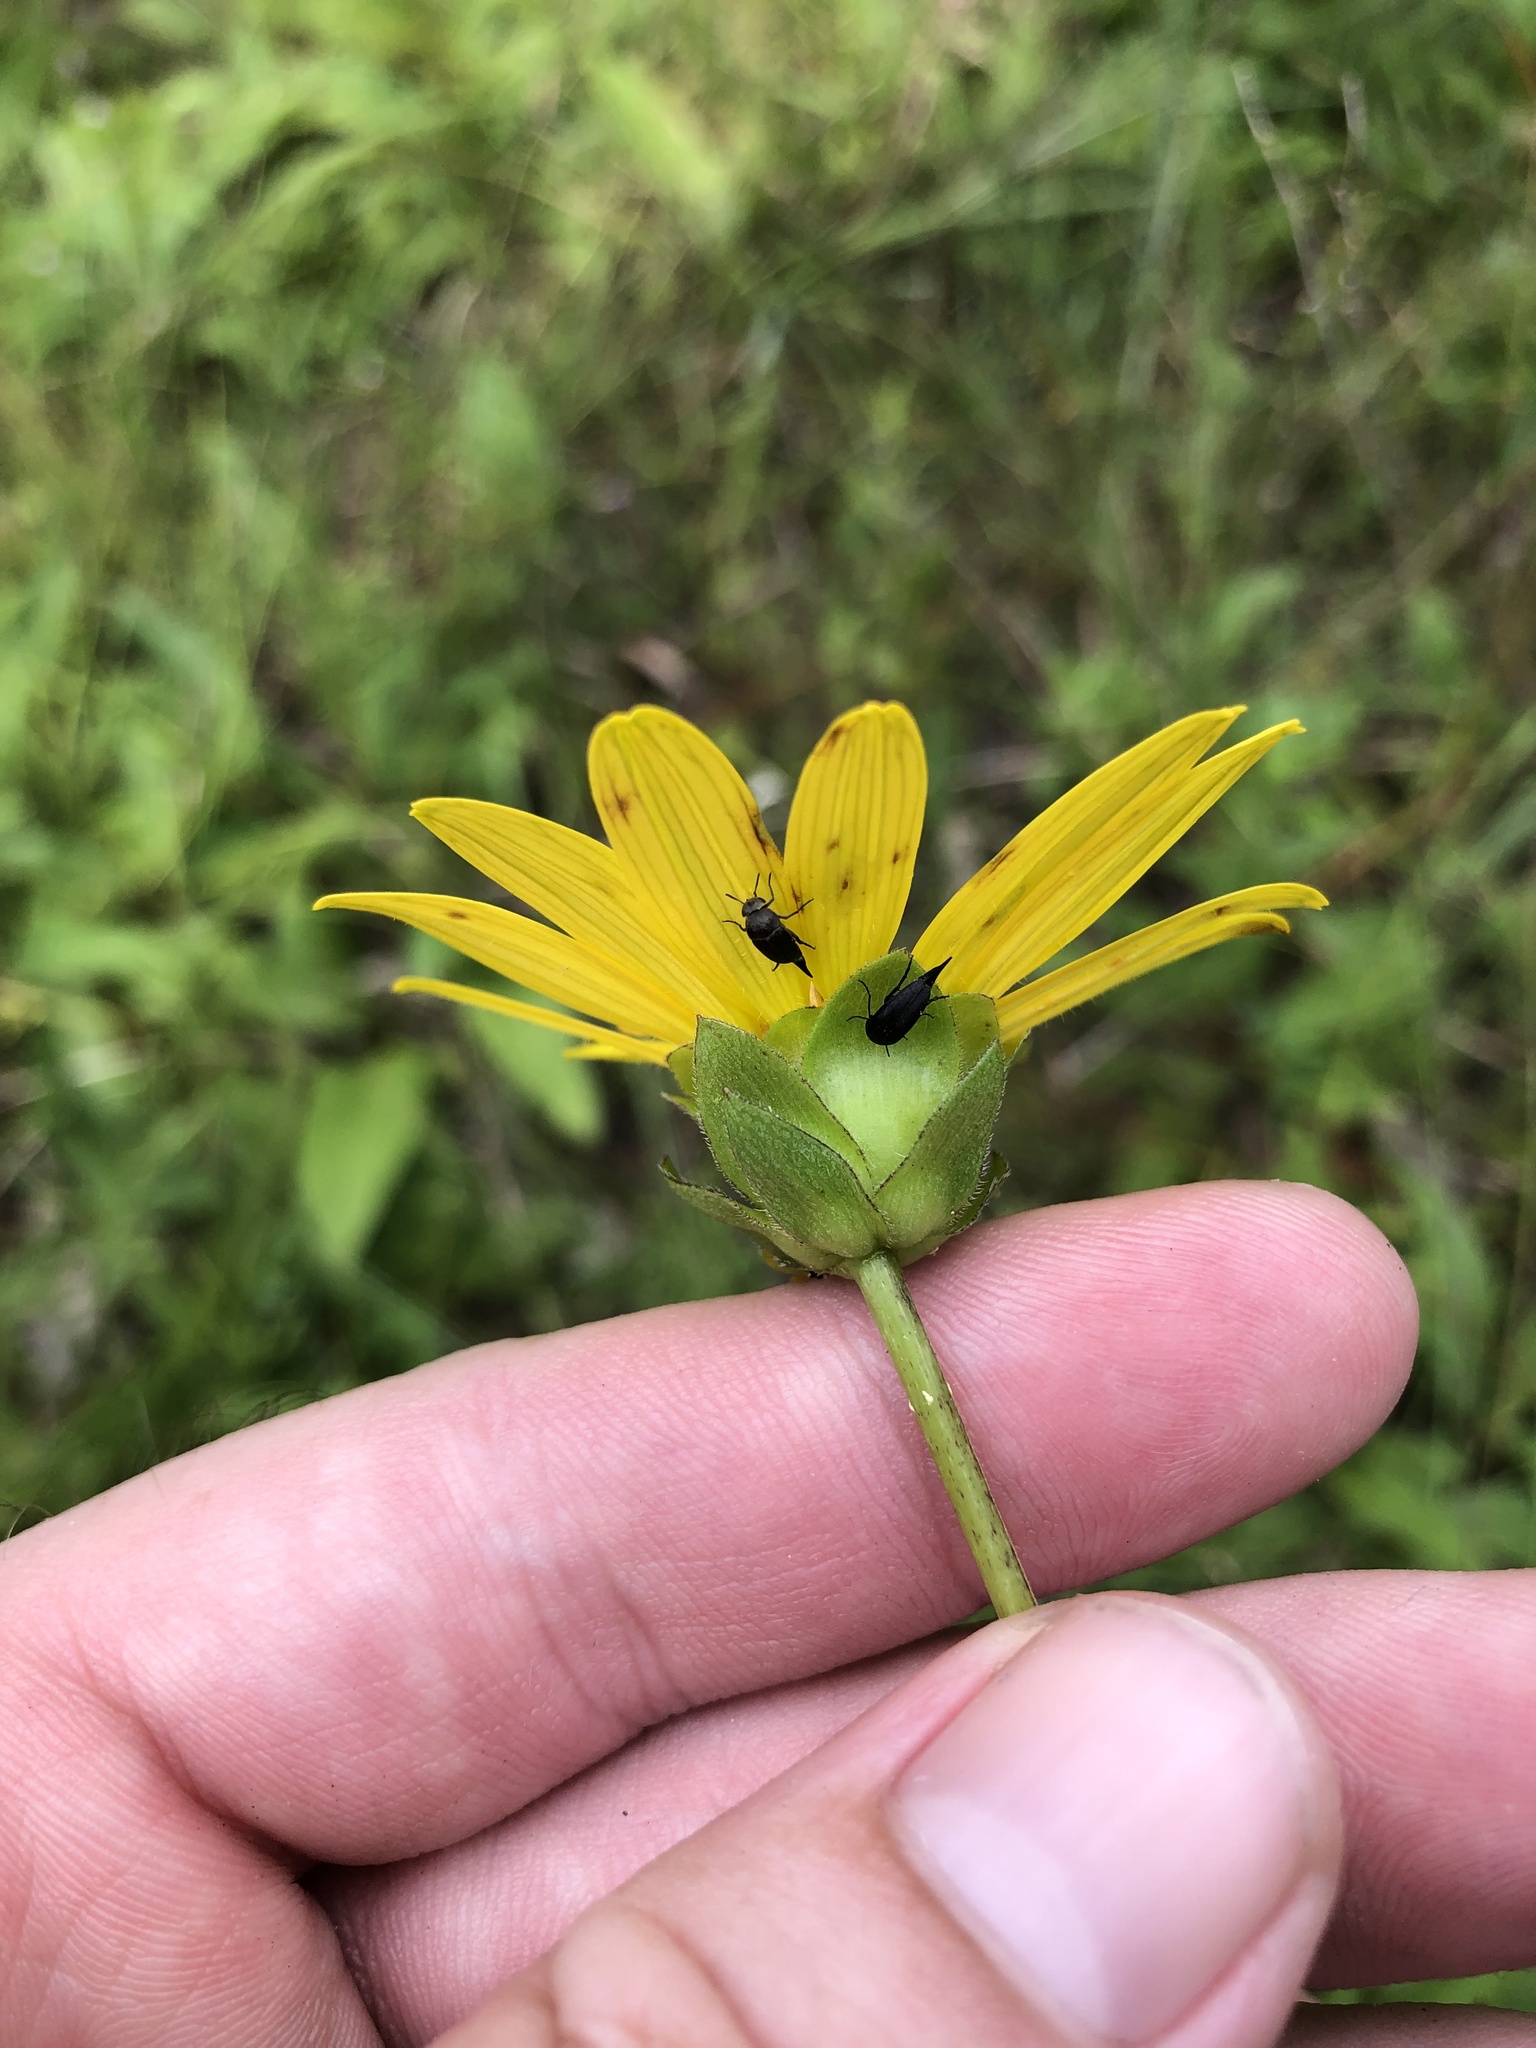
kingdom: Plantae
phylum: Tracheophyta
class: Magnoliopsida
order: Asterales
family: Asteraceae
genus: Silphium
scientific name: Silphium confertifolium
